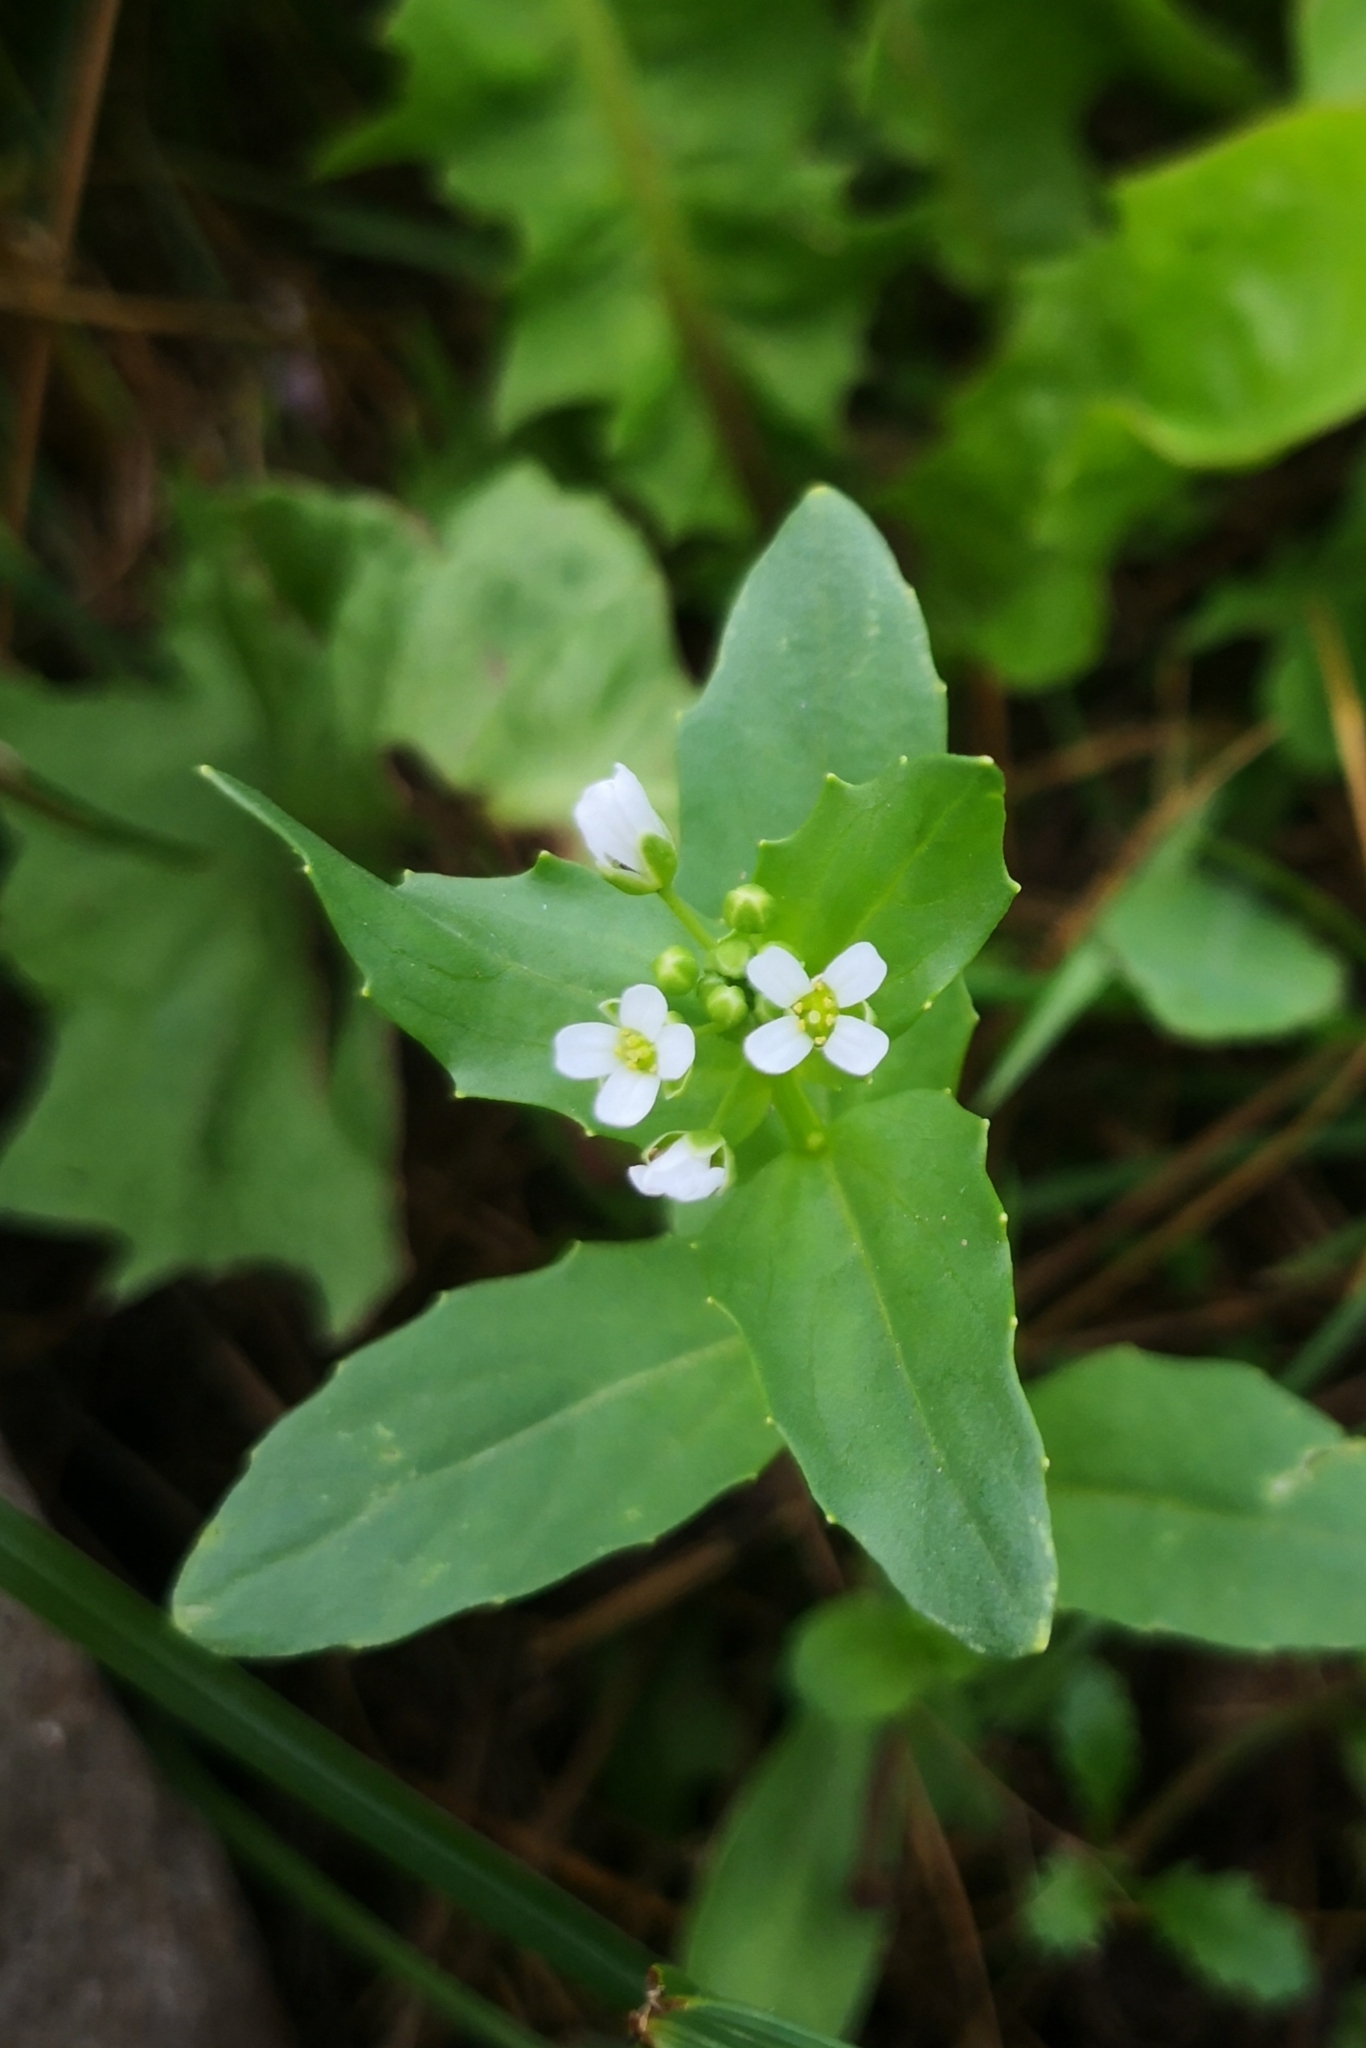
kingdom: Plantae
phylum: Tracheophyta
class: Magnoliopsida
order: Brassicales
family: Brassicaceae
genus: Thlaspi
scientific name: Thlaspi arvense
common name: Field pennycress
